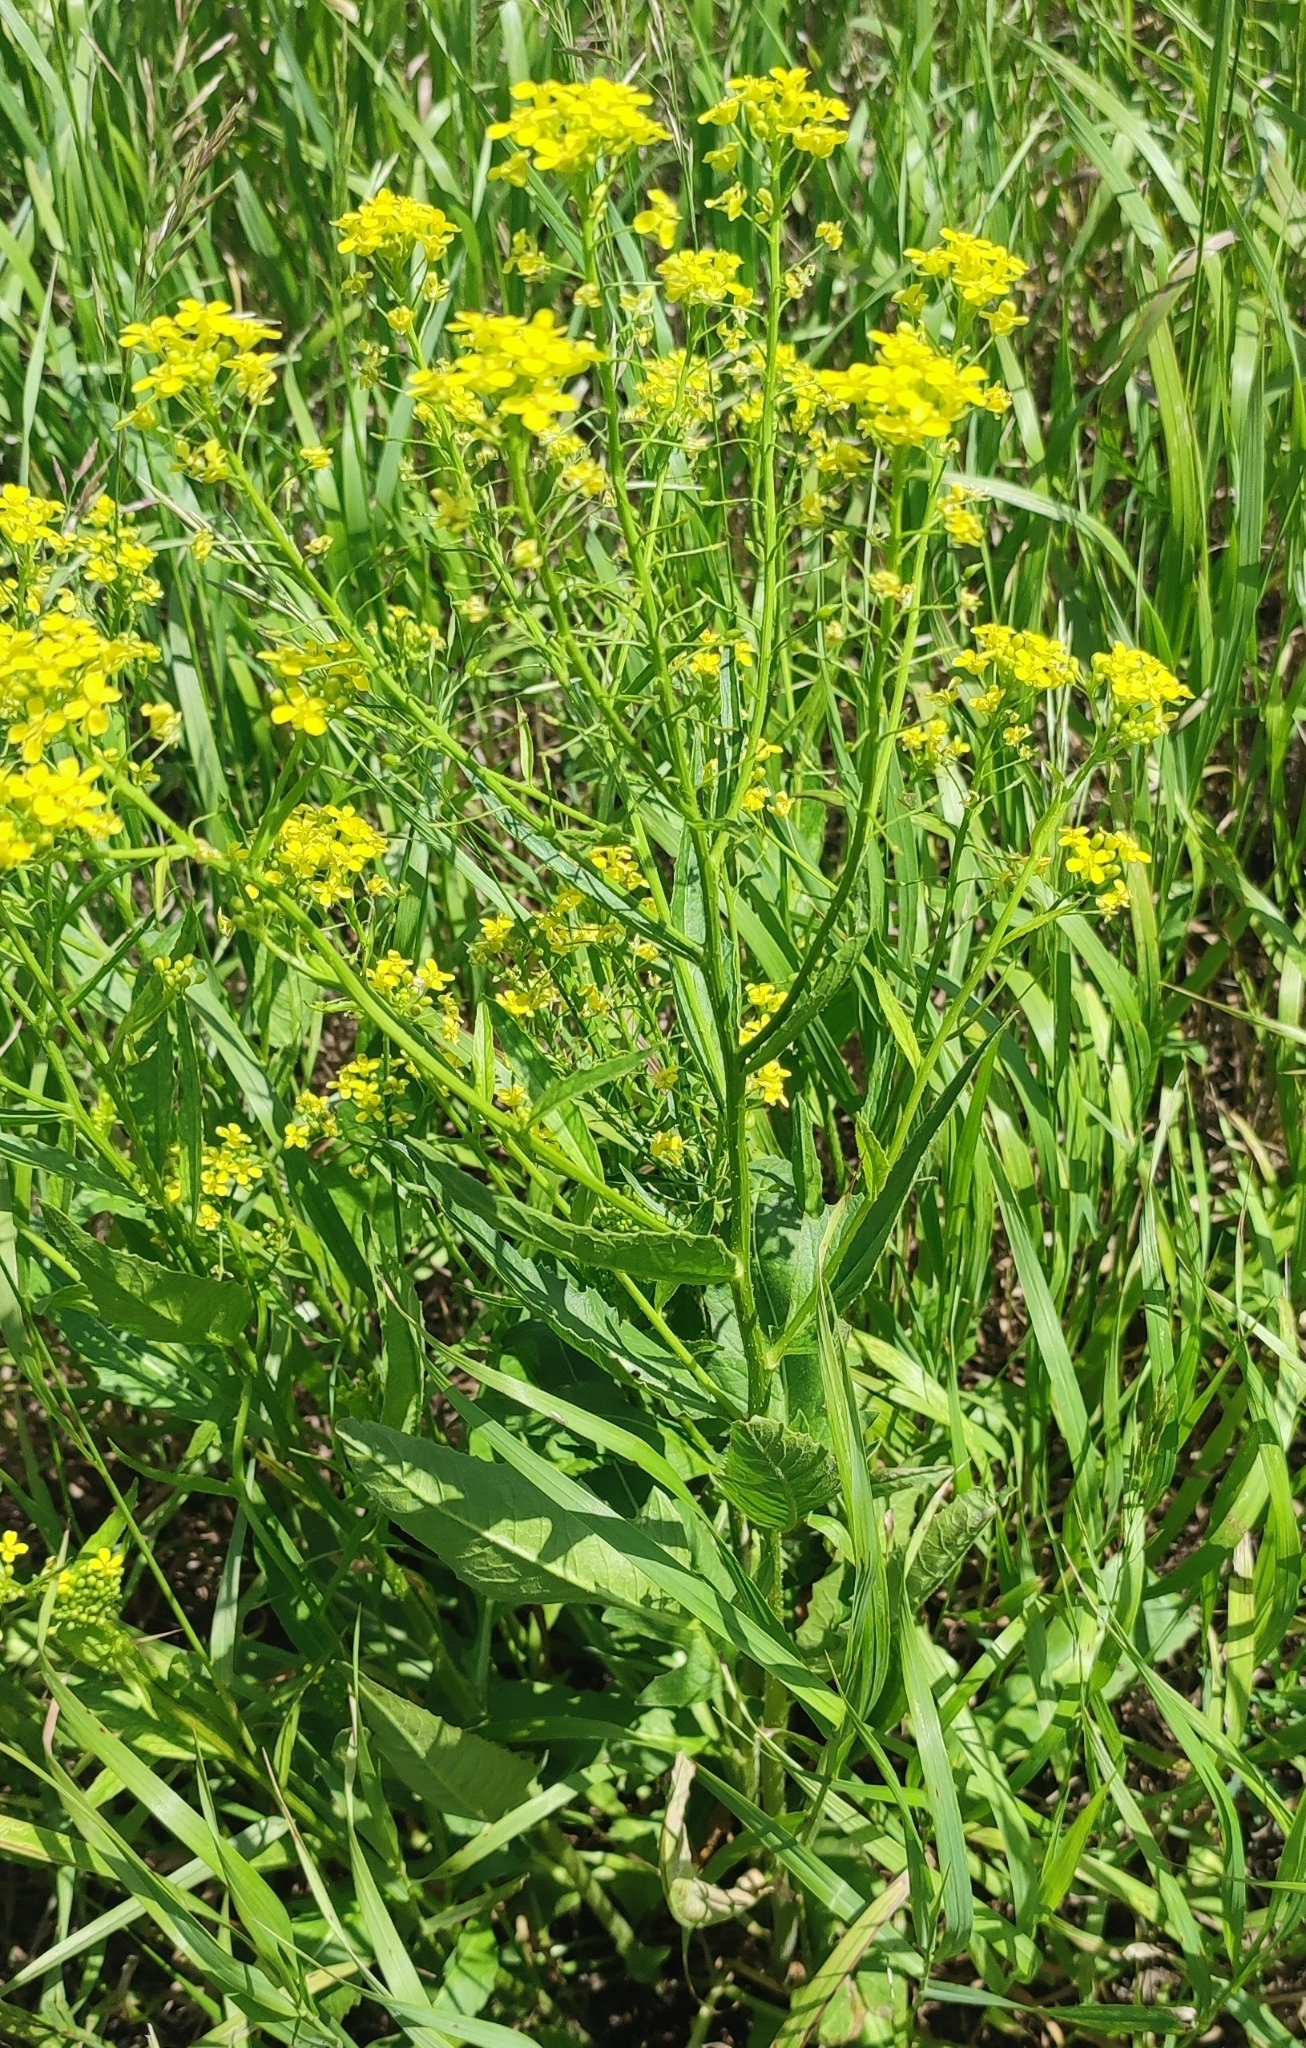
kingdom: Plantae
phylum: Tracheophyta
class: Magnoliopsida
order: Brassicales
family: Brassicaceae
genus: Bunias
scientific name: Bunias orientalis
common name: Warty-cabbage
